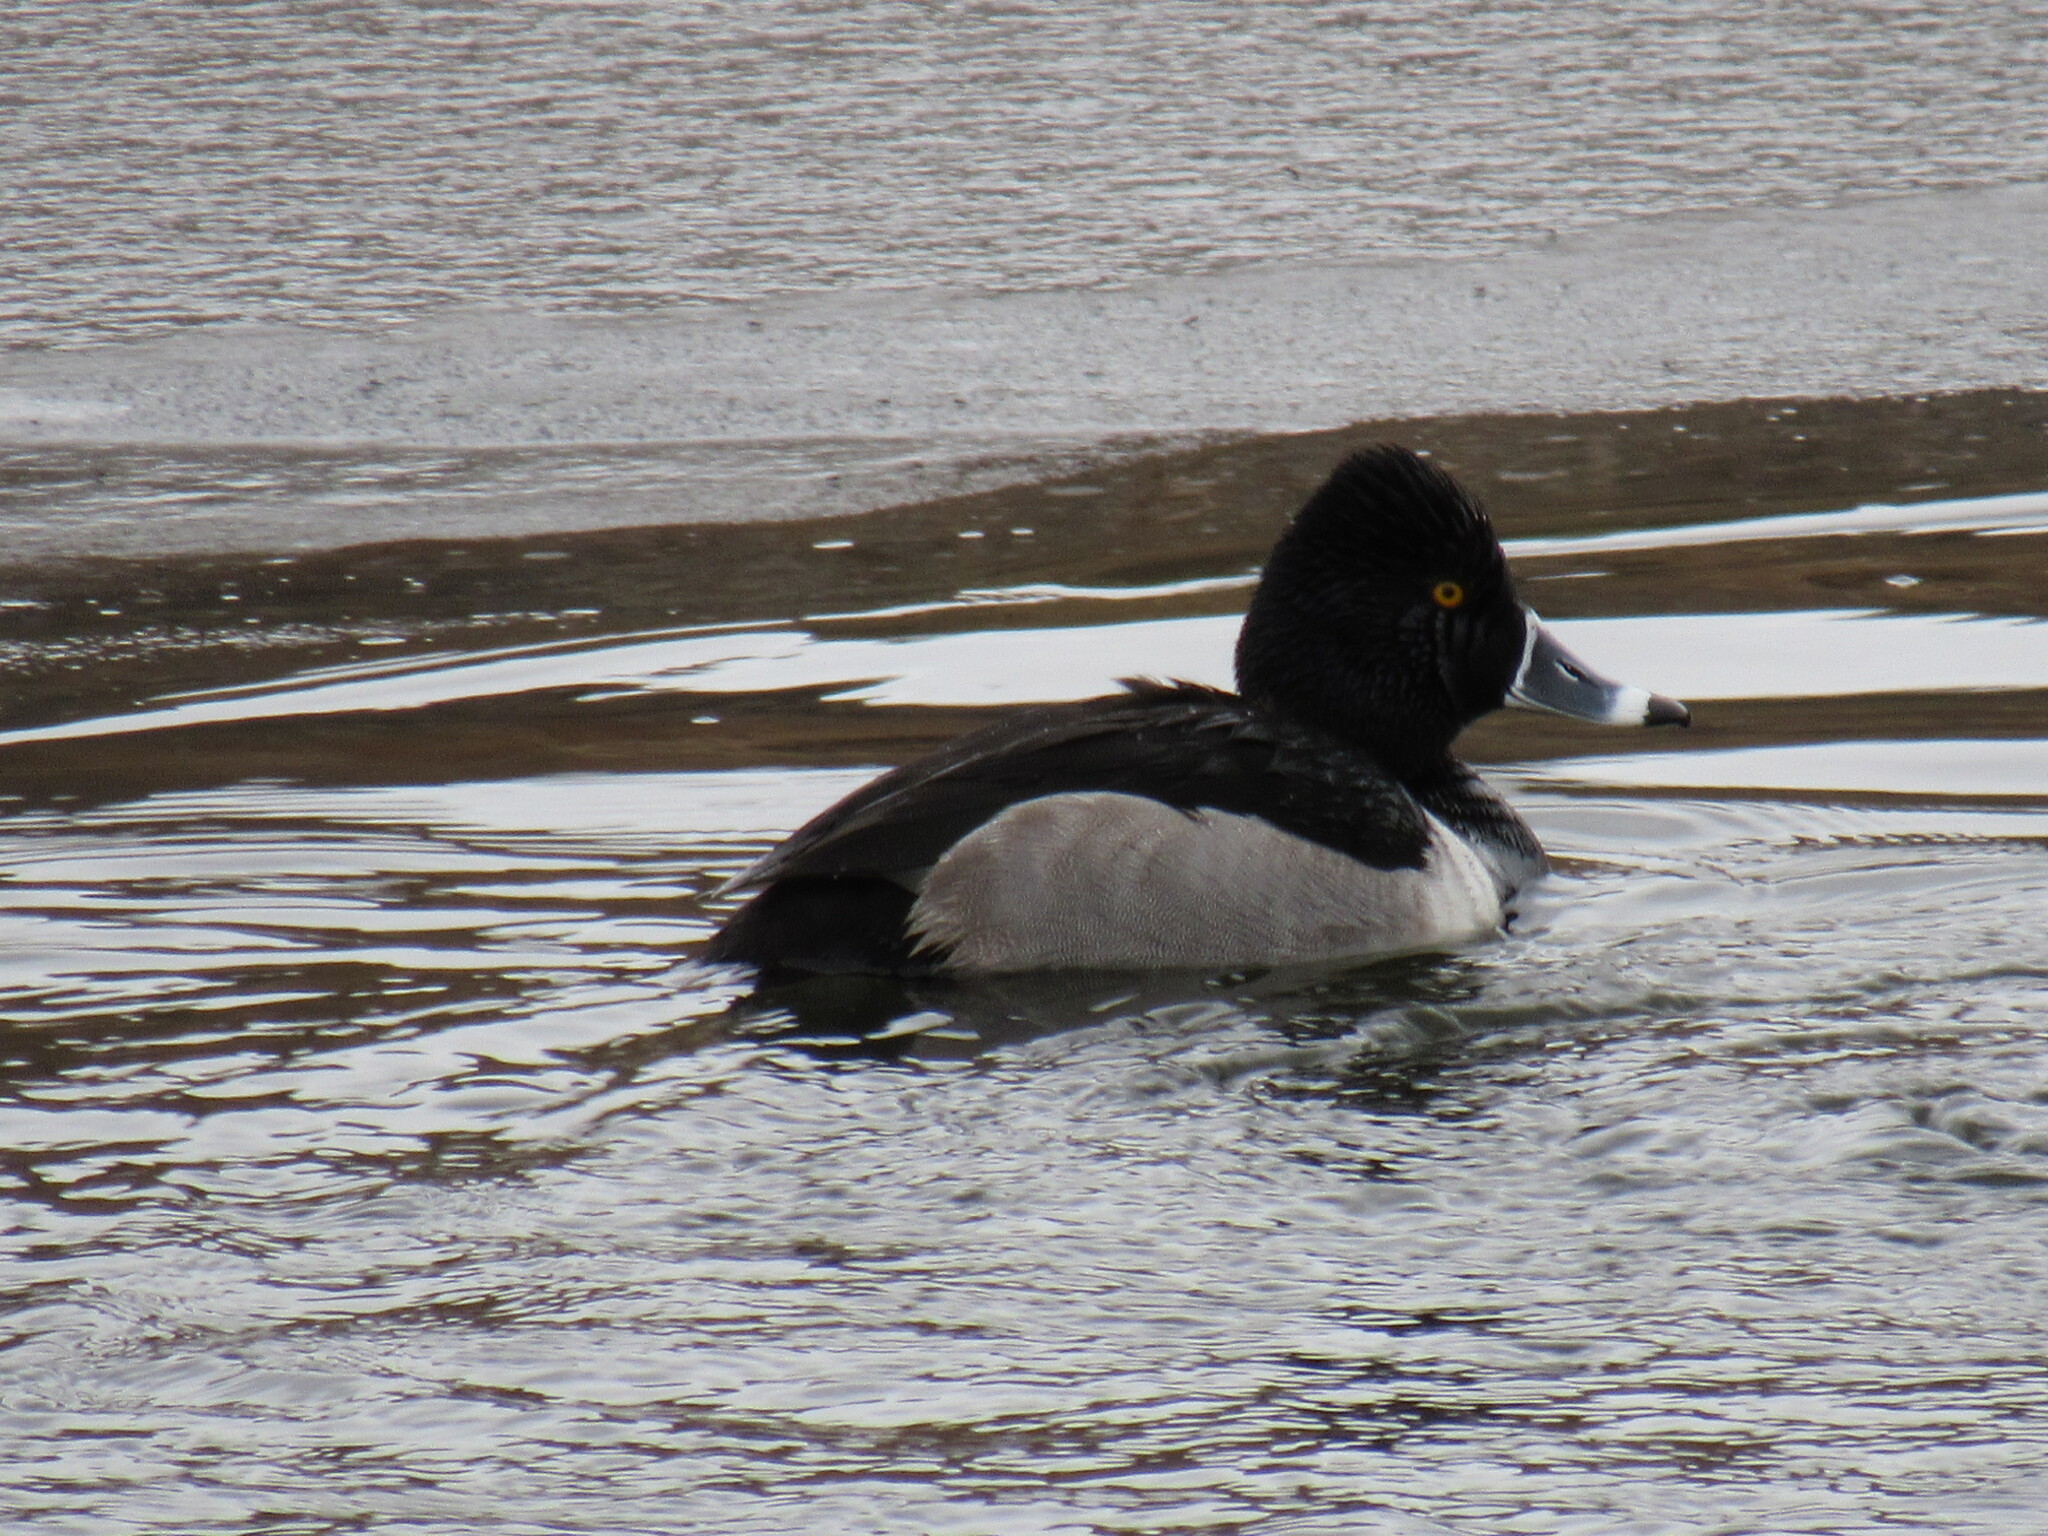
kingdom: Animalia
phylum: Chordata
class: Aves
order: Anseriformes
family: Anatidae
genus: Aythya
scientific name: Aythya collaris
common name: Ring-necked duck
